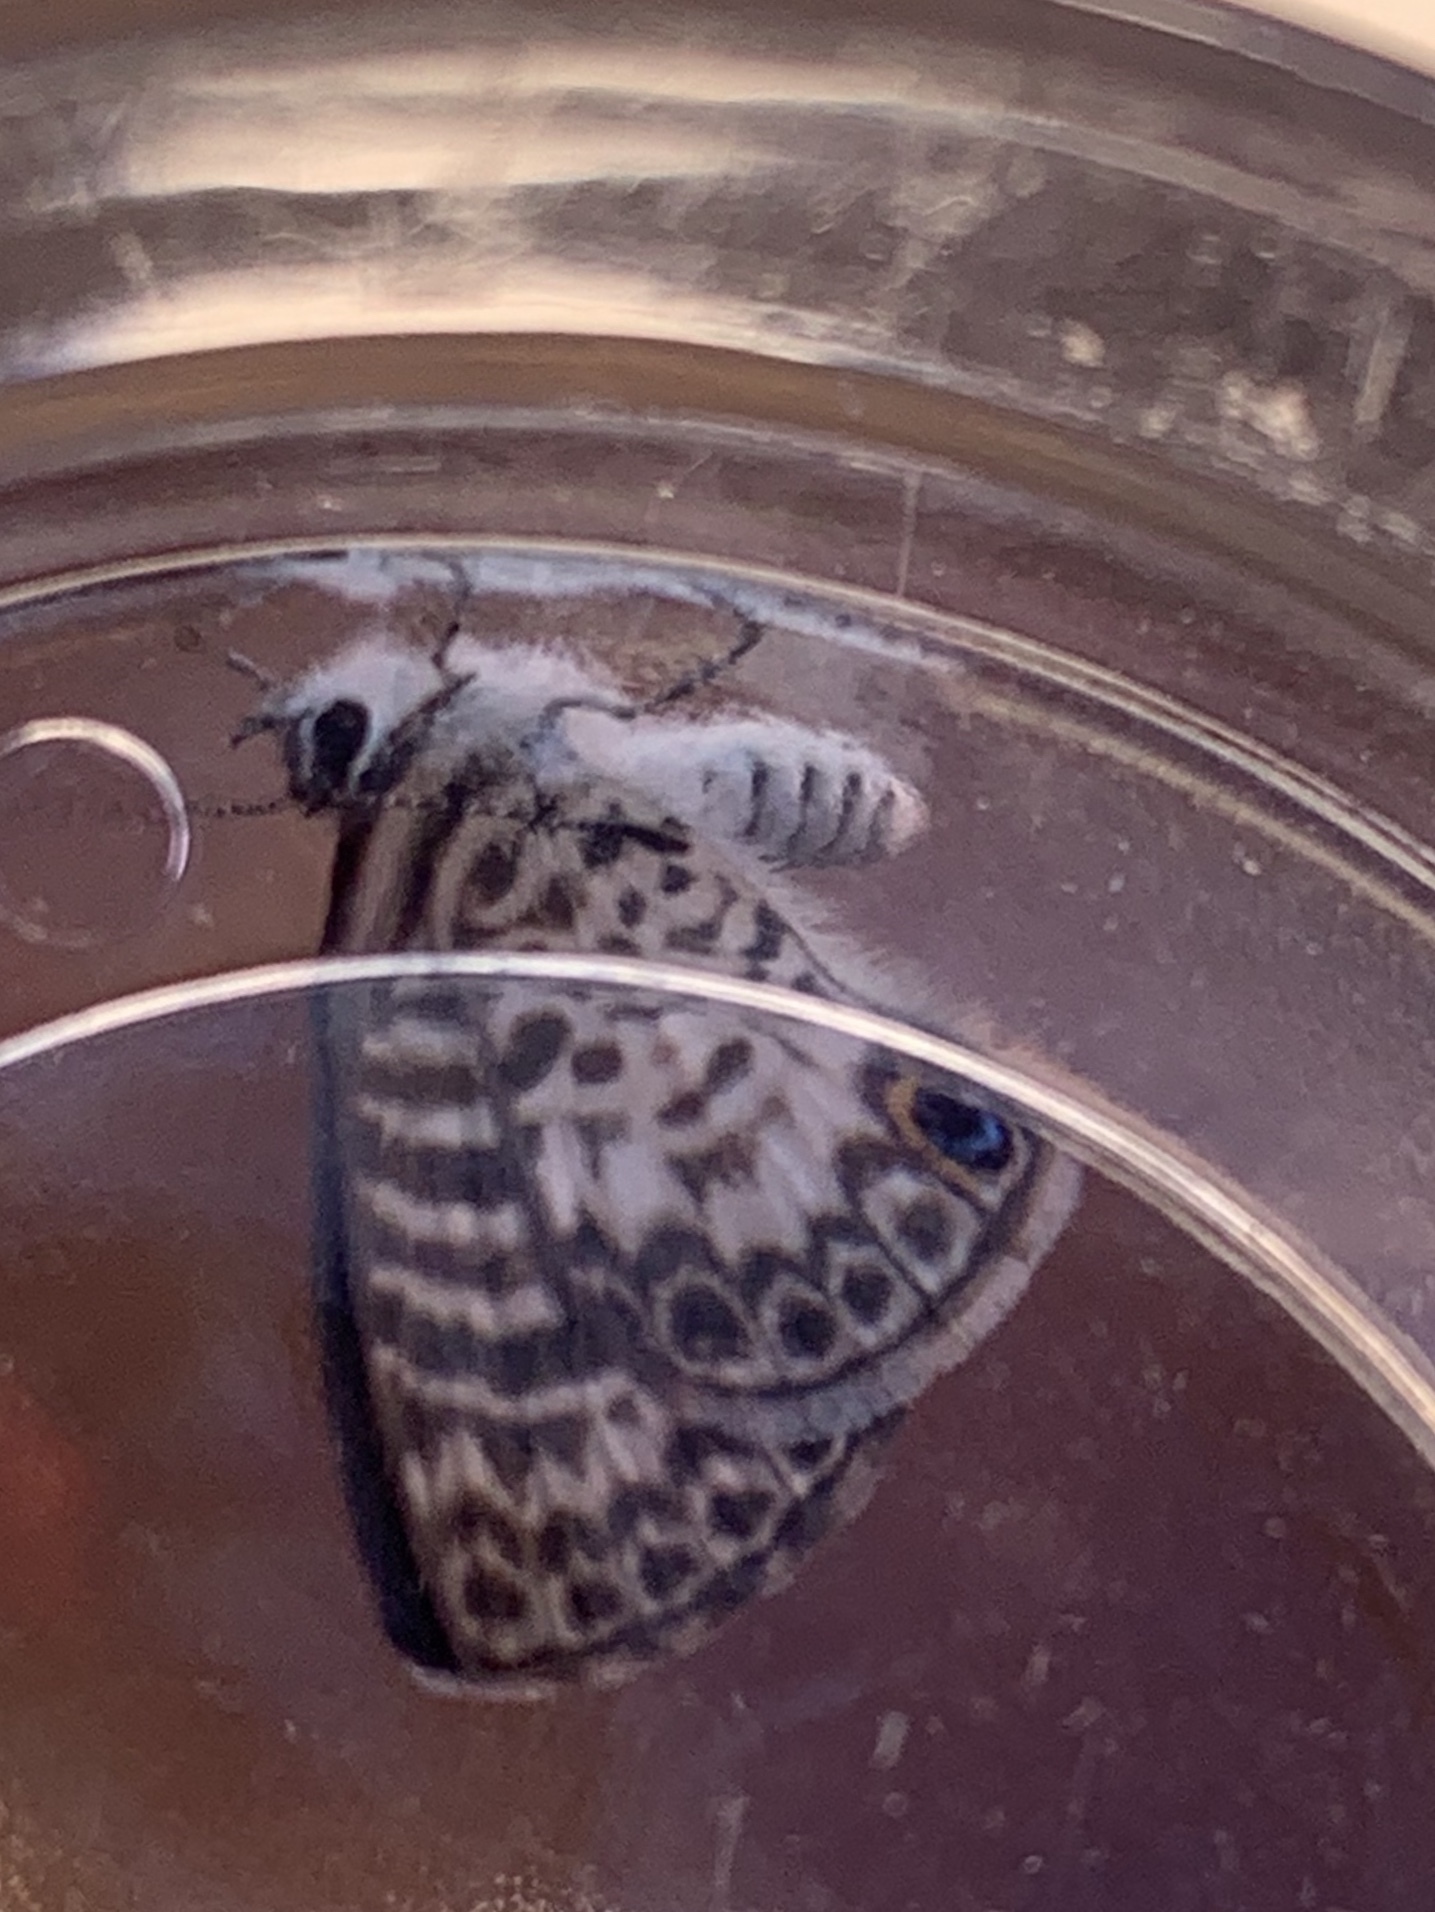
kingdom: Animalia
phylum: Arthropoda
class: Insecta
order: Lepidoptera
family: Lycaenidae
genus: Leptotes
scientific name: Leptotes cassius
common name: Cassius blue
